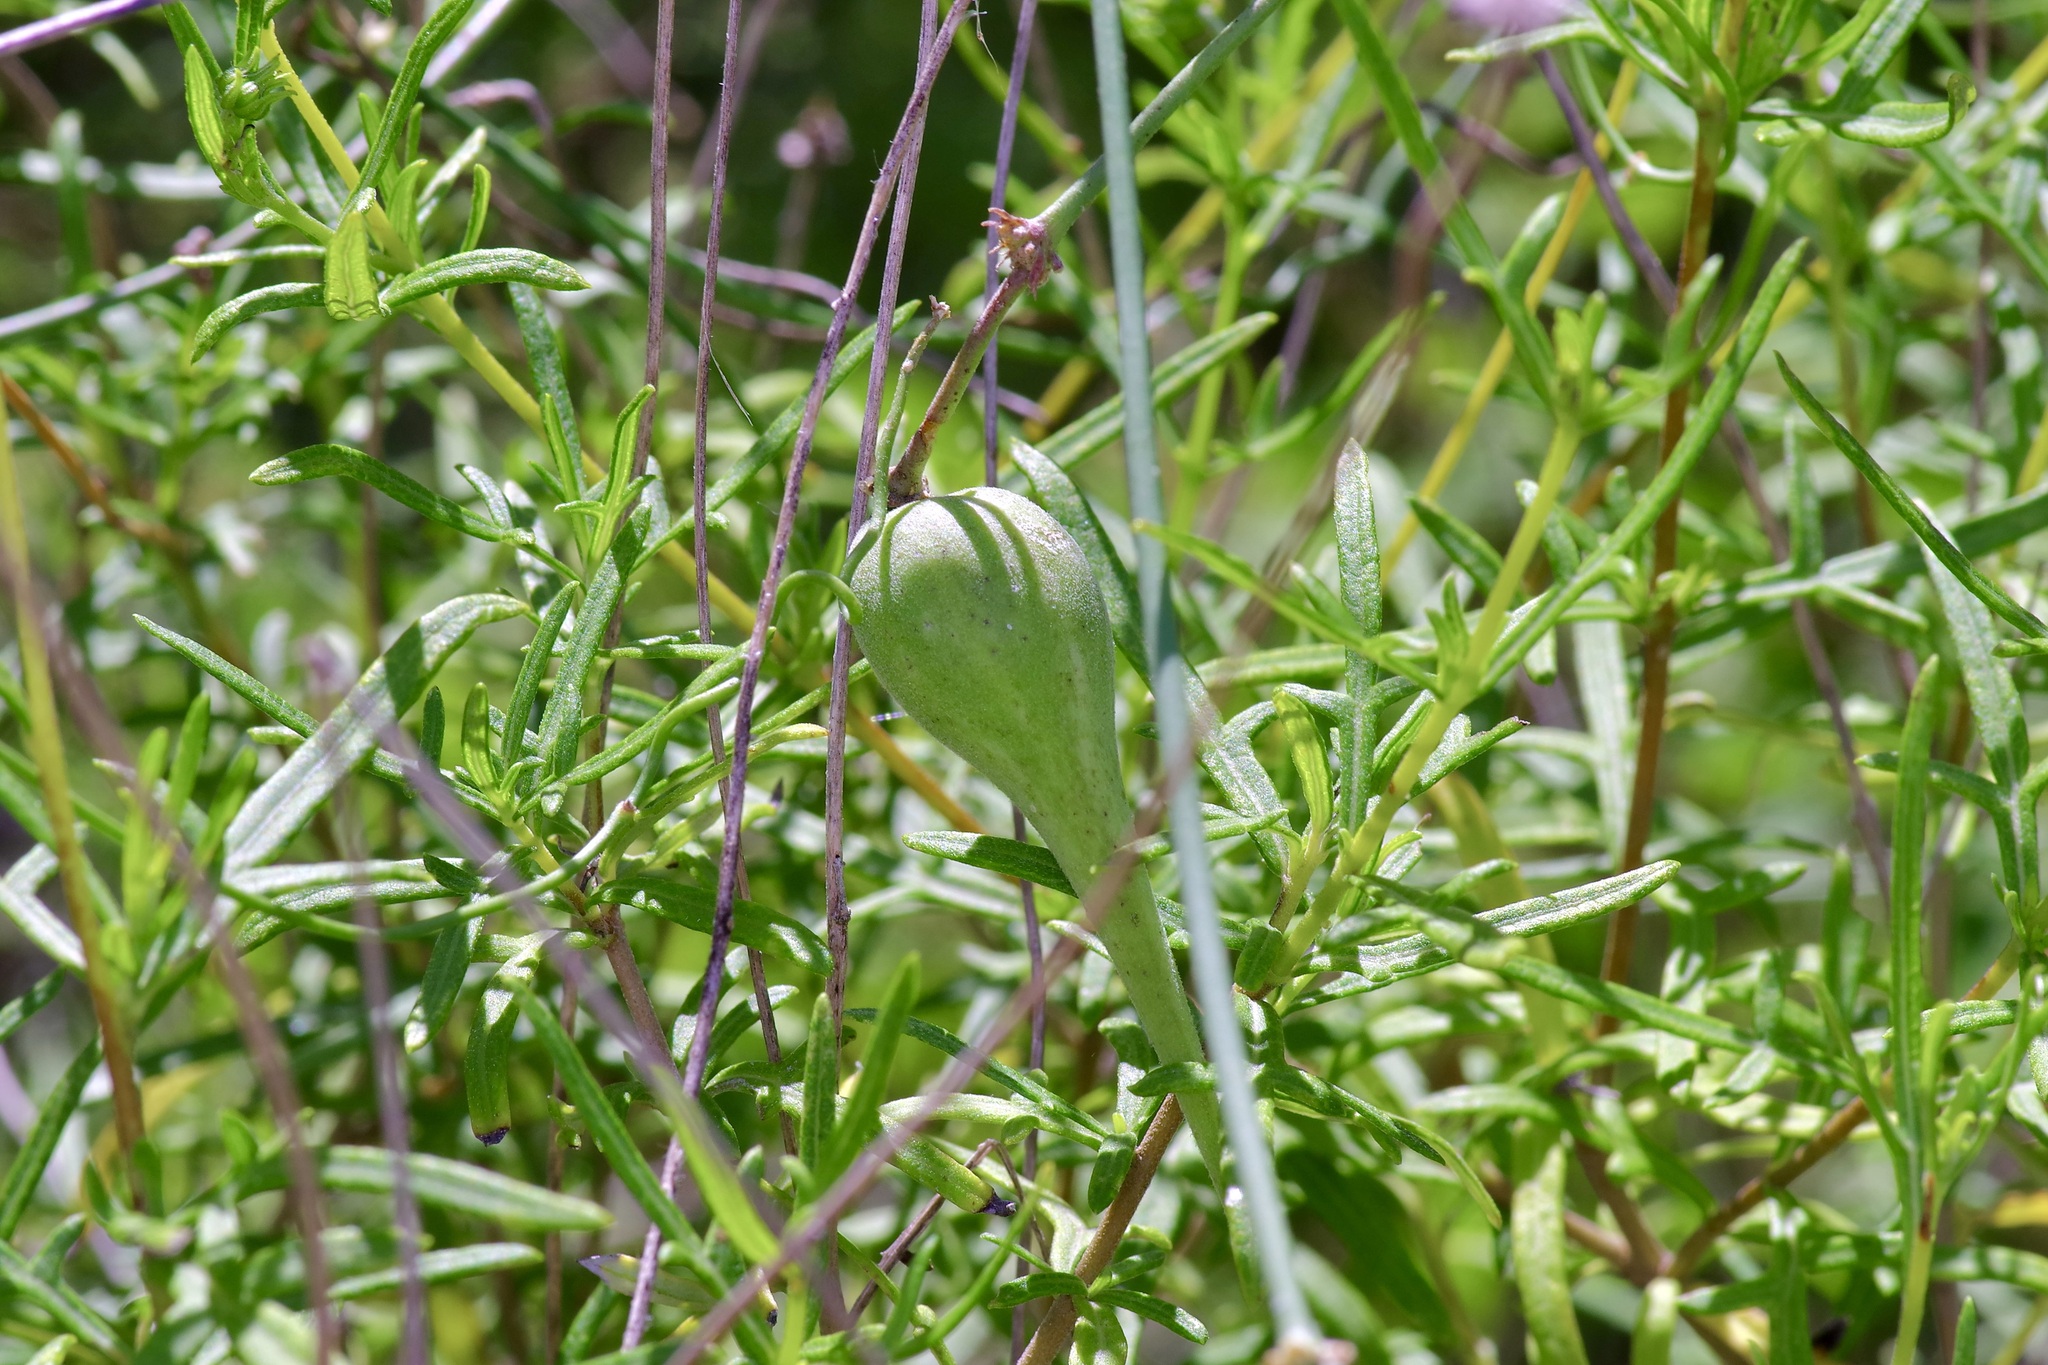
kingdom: Plantae
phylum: Tracheophyta
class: Magnoliopsida
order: Gentianales
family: Apocynaceae
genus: Funastrum
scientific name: Funastrum cynanchoides
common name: Climbing-milkweed
